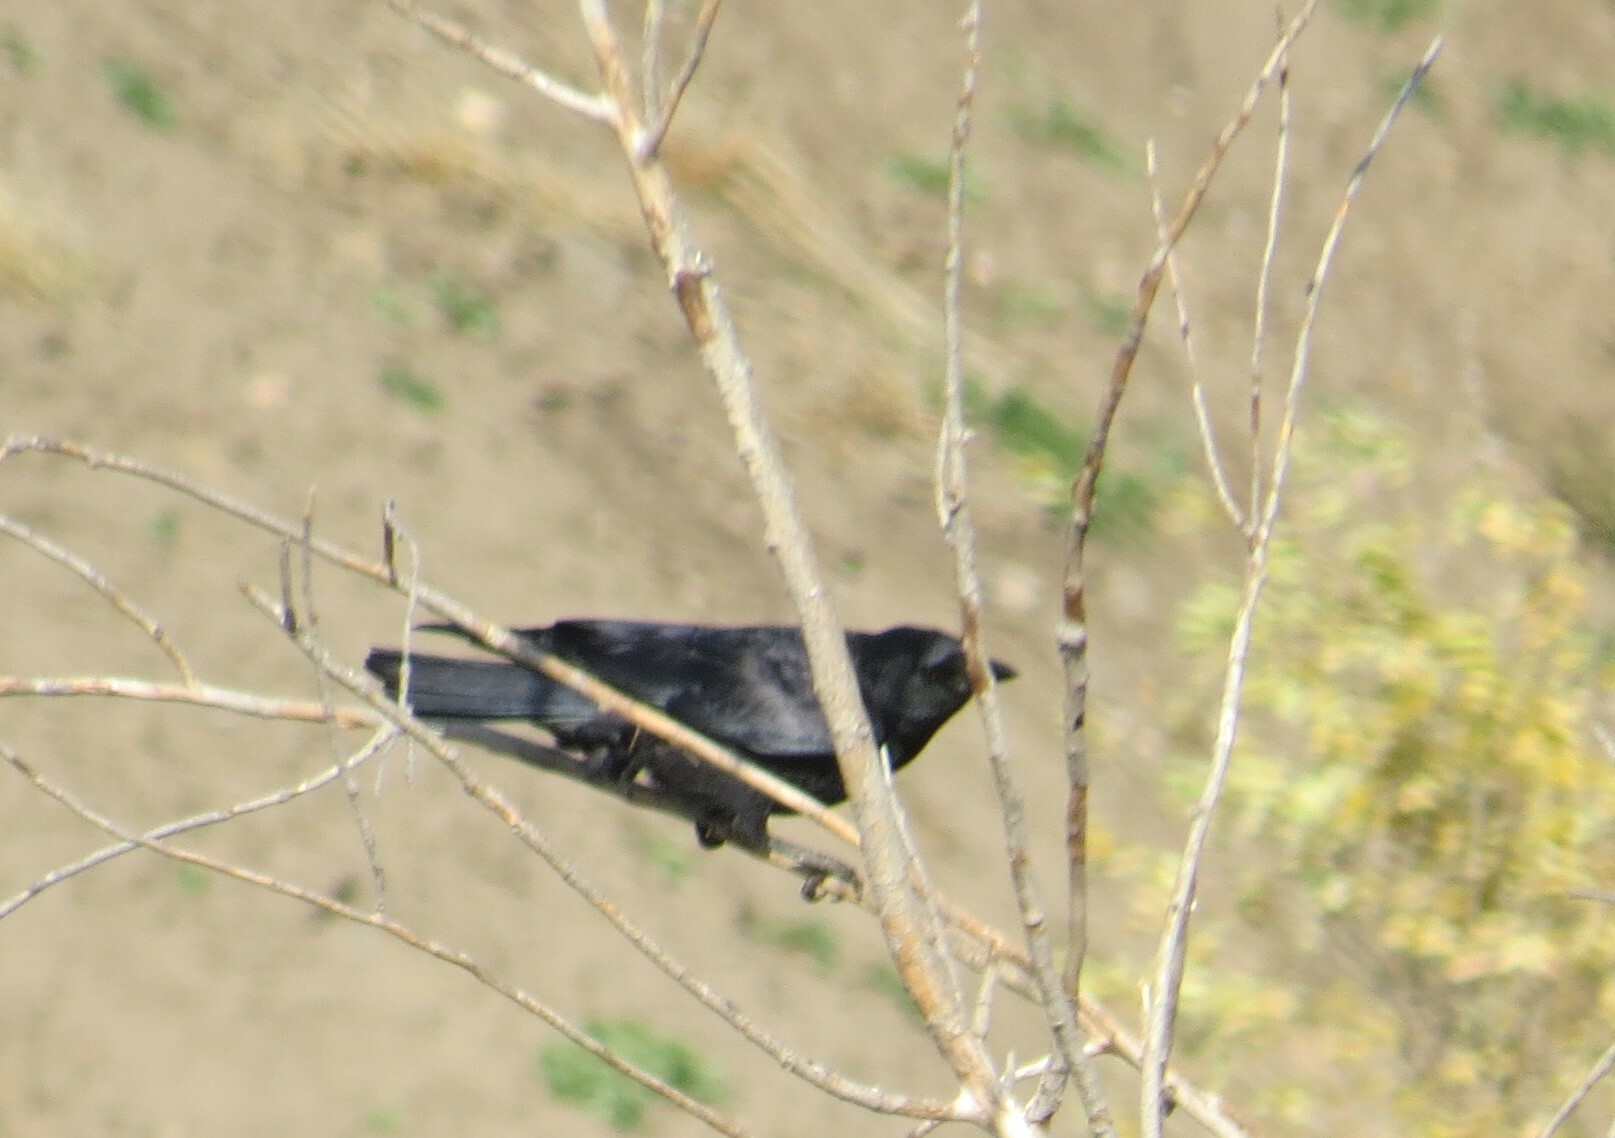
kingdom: Animalia
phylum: Chordata
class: Aves
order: Passeriformes
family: Corvidae
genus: Corvus
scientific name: Corvus brachyrhynchos
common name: American crow
